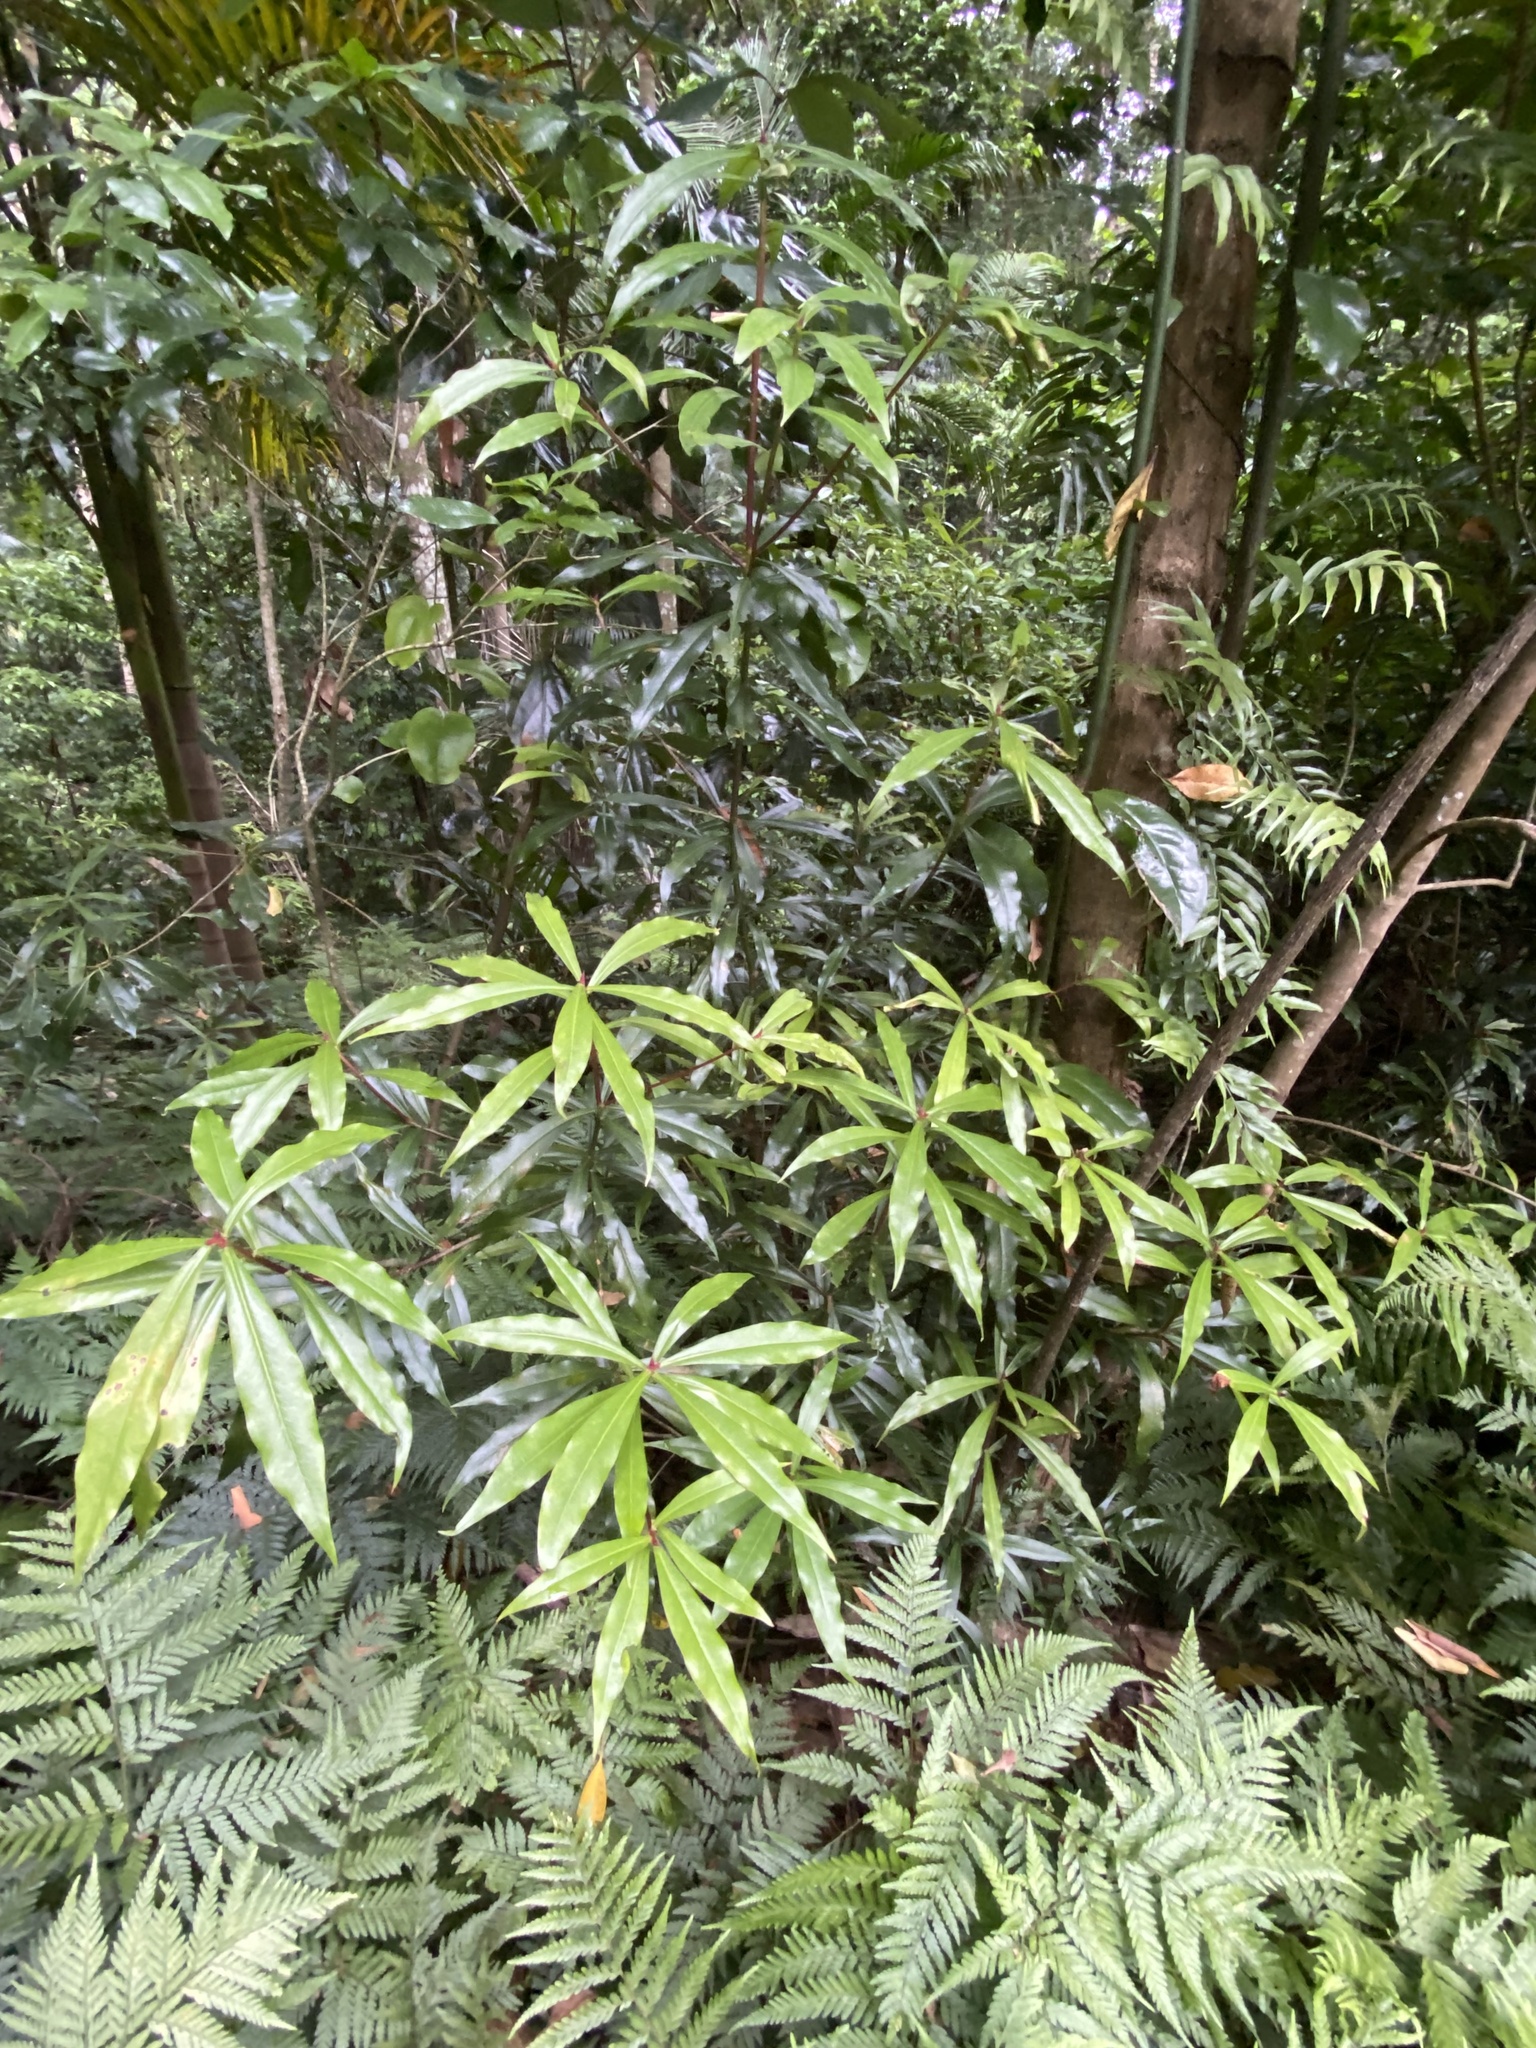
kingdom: Plantae
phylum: Tracheophyta
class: Magnoliopsida
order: Canellales
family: Winteraceae
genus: Drimys
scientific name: Drimys insipida
